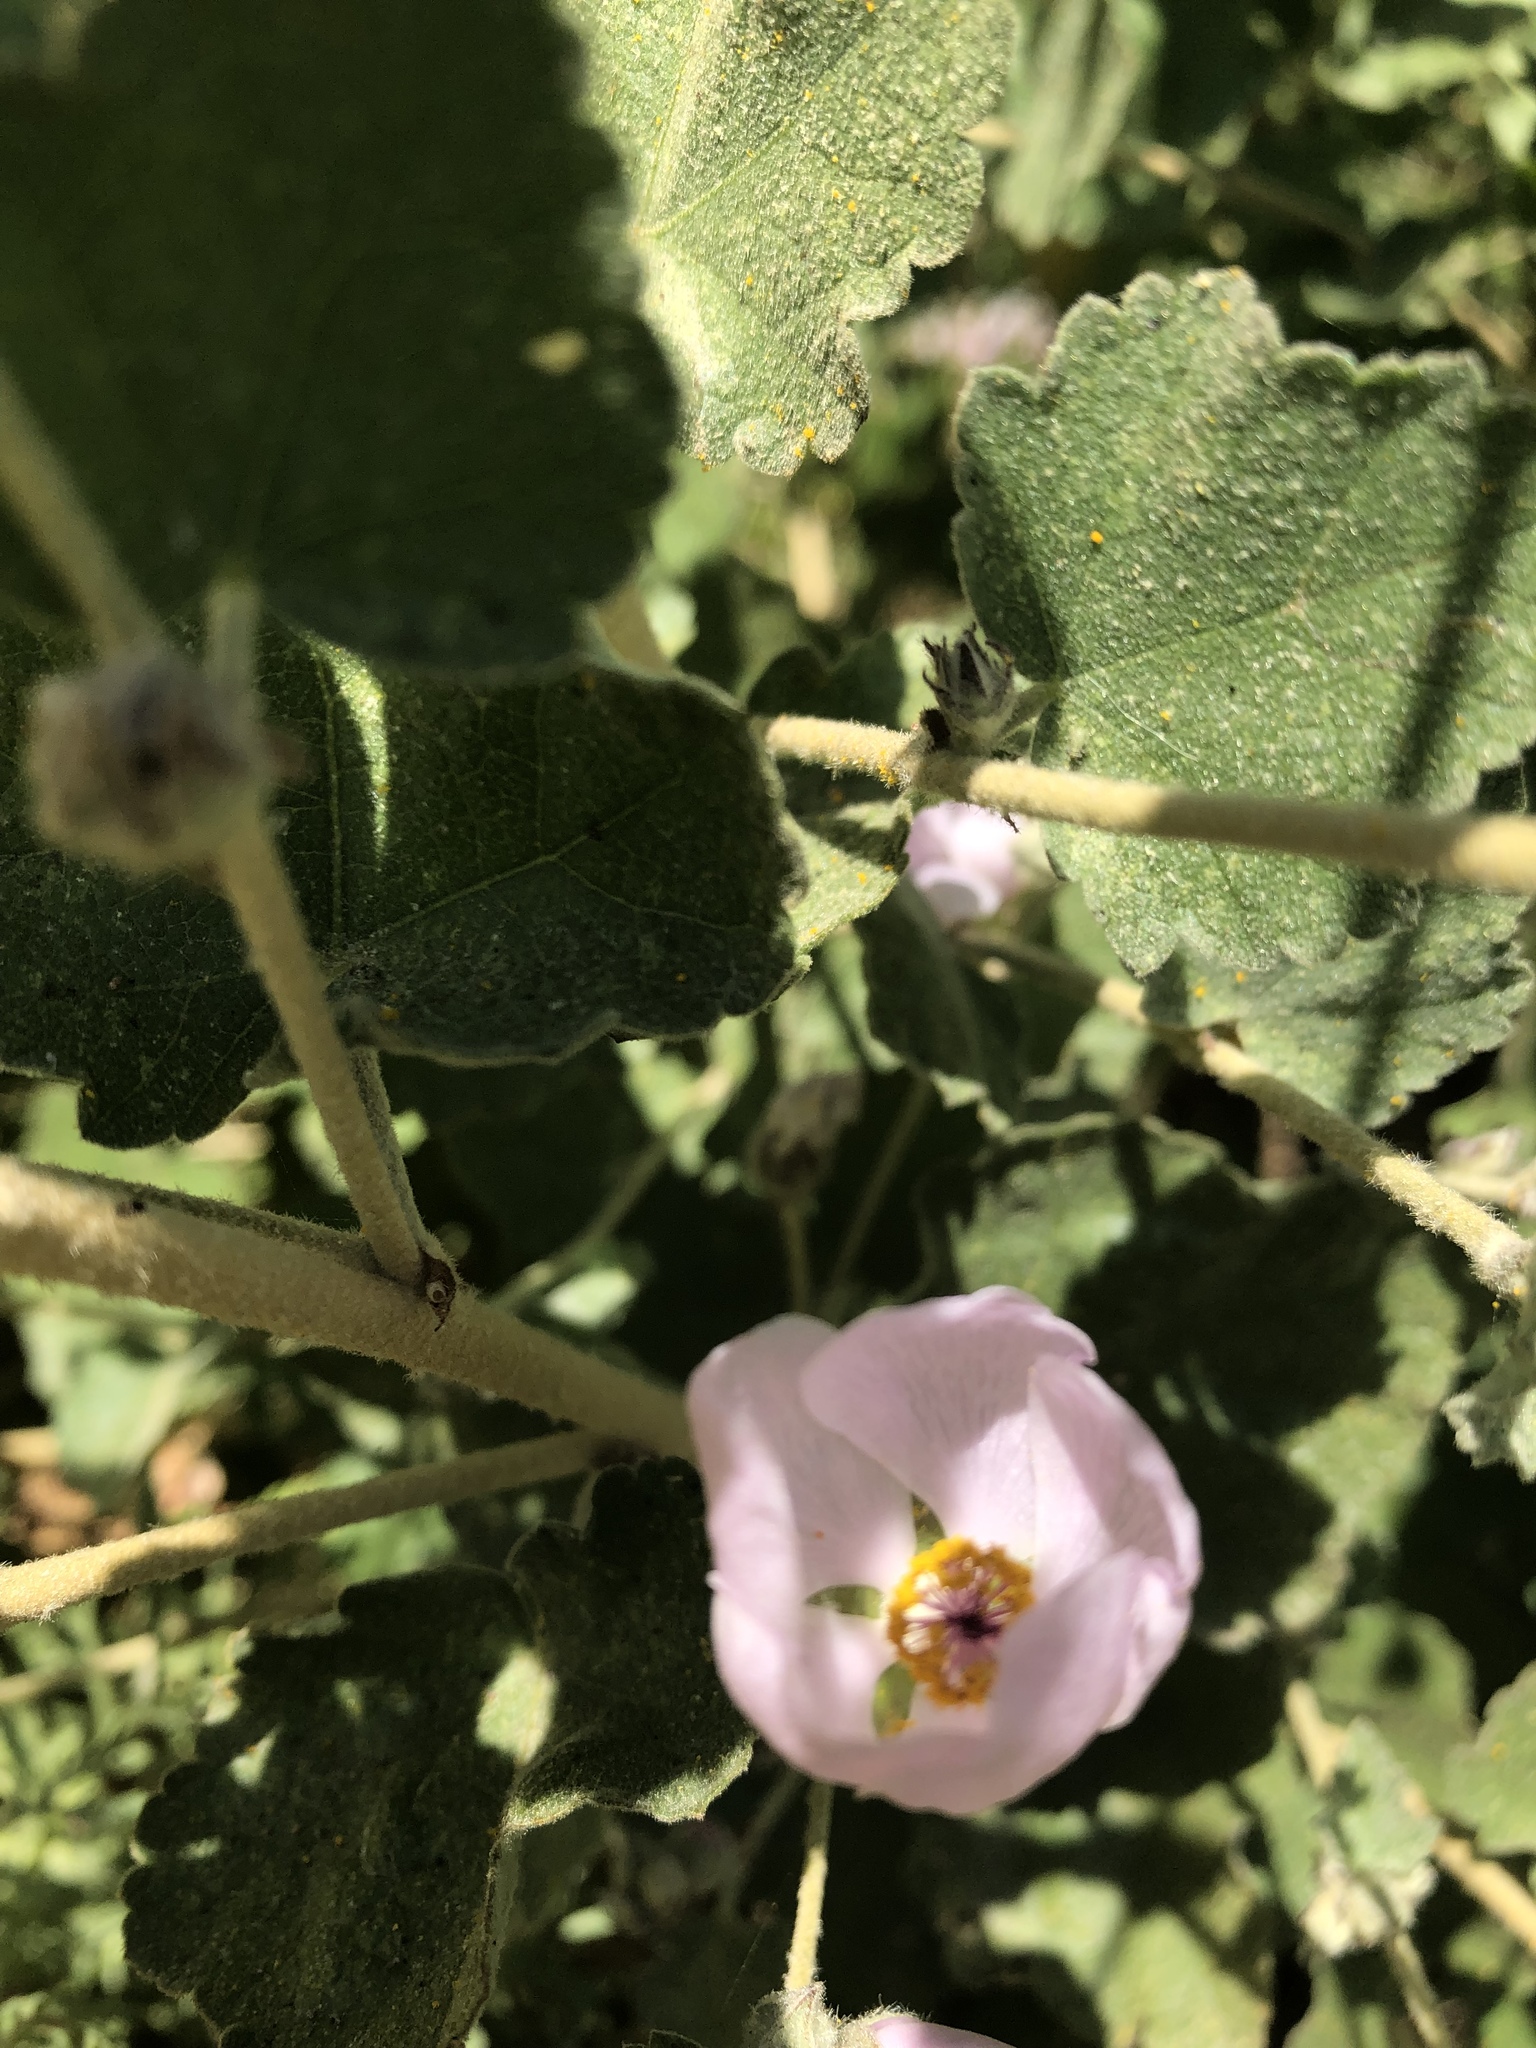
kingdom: Plantae
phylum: Tracheophyta
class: Magnoliopsida
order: Malvales
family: Malvaceae
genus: Malacothamnus
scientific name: Malacothamnus fasciculatus
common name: Sant cruz island bush-mallow
